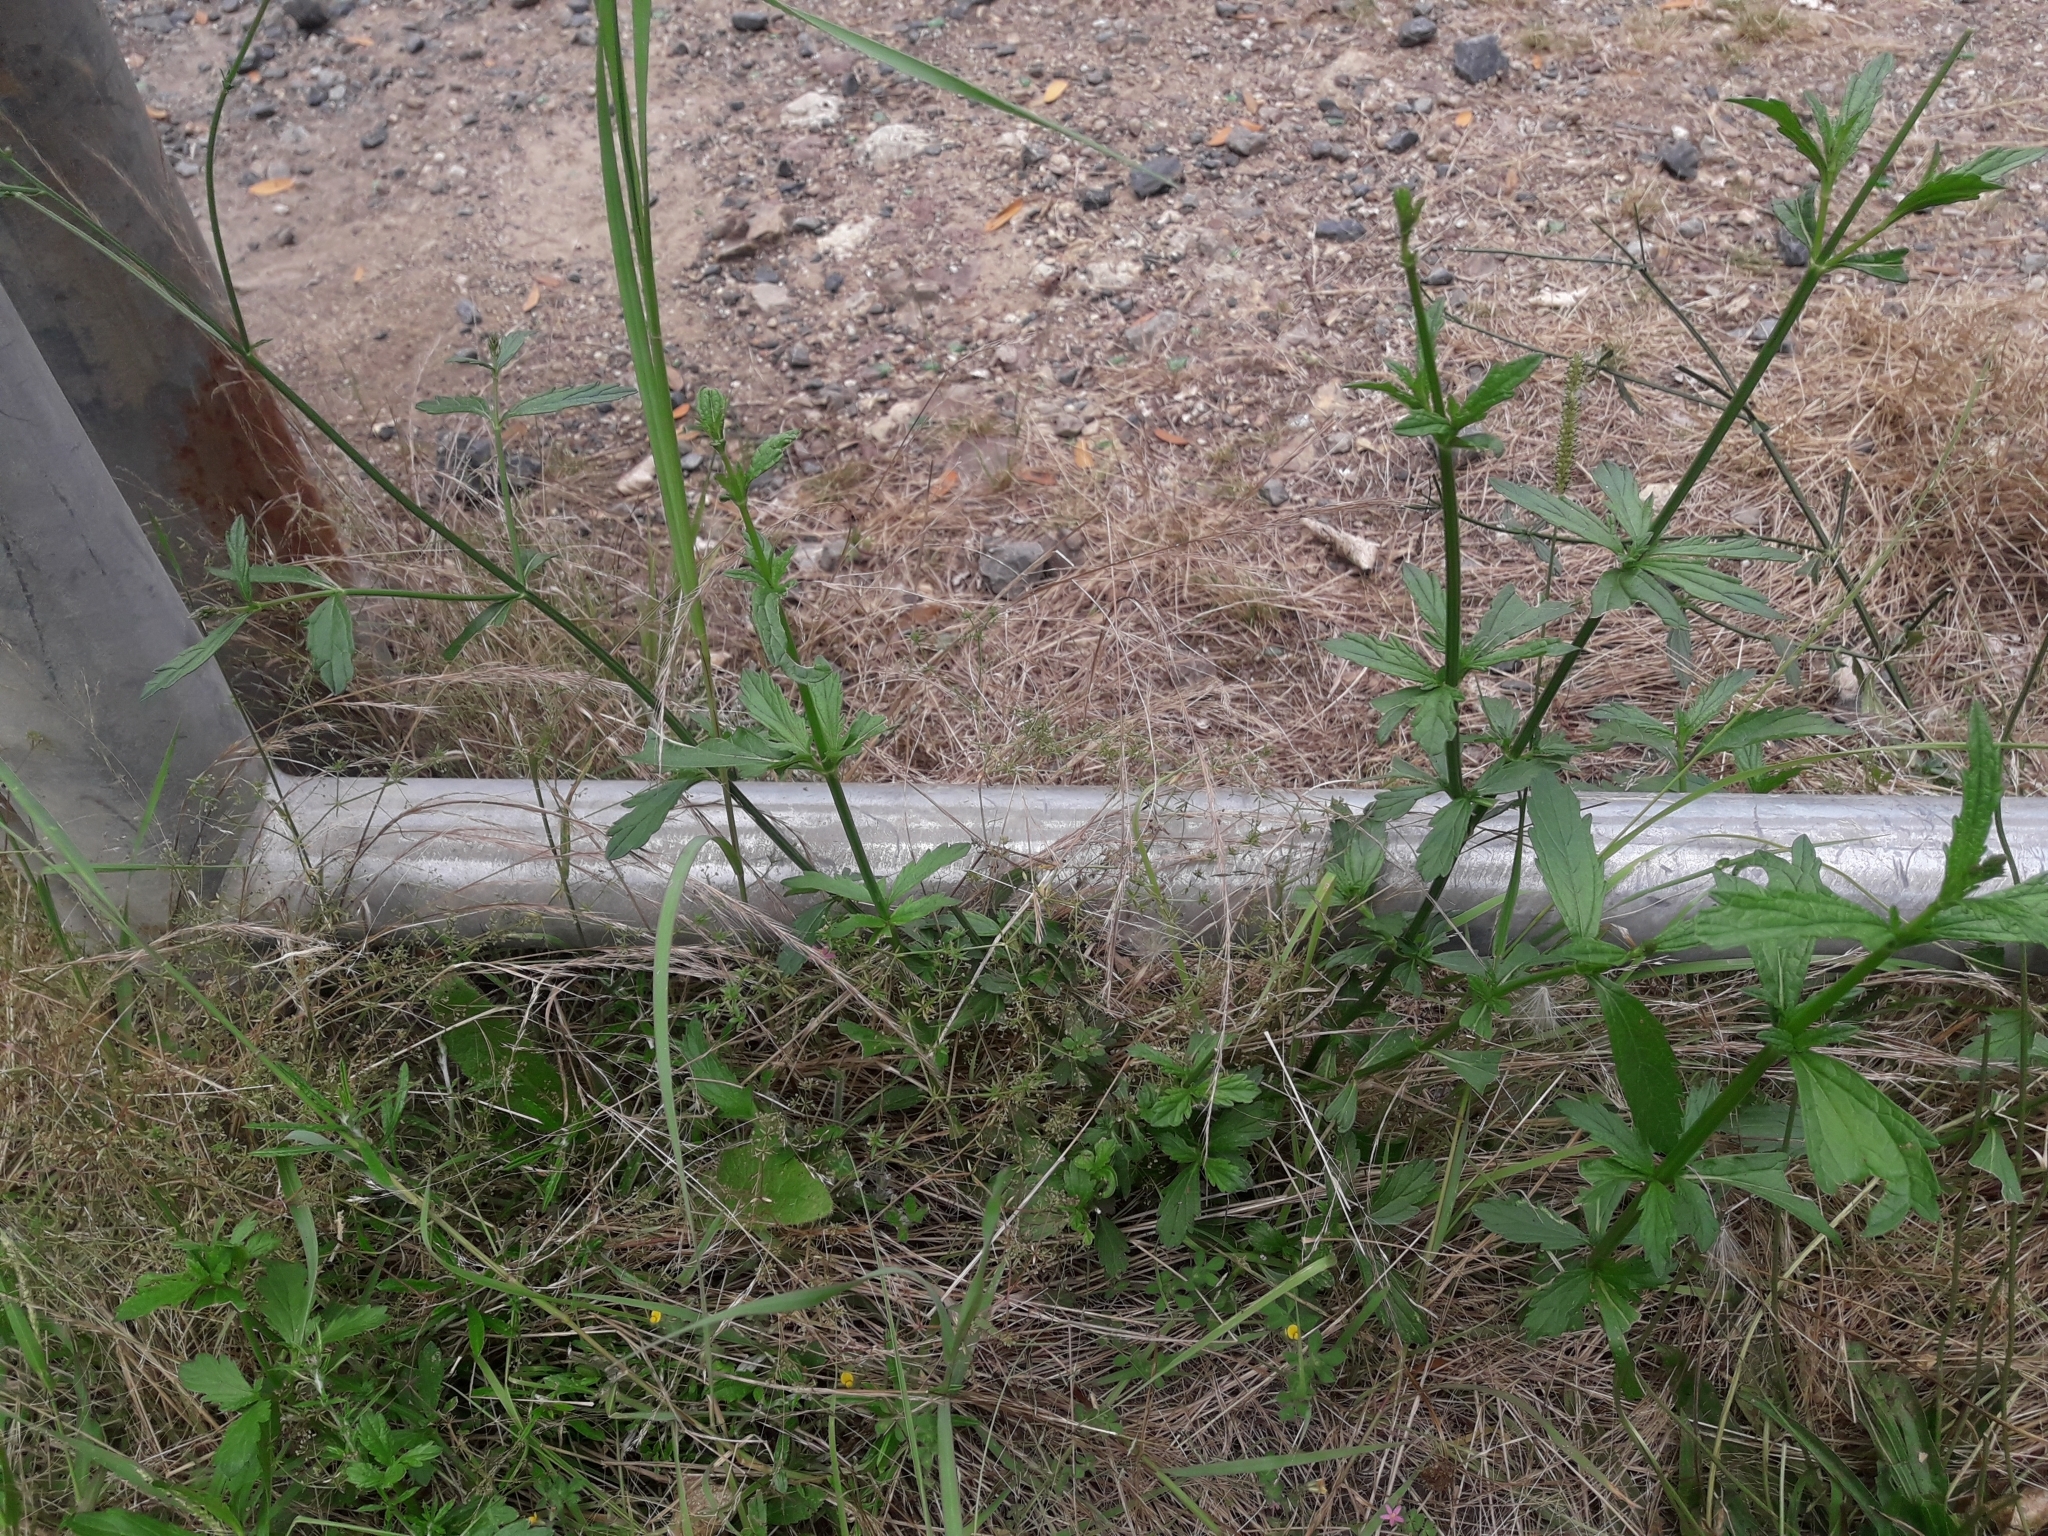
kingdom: Plantae
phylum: Tracheophyta
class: Magnoliopsida
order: Lamiales
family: Verbenaceae
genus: Verbena
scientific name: Verbena litoralis
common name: Seashore vervain
